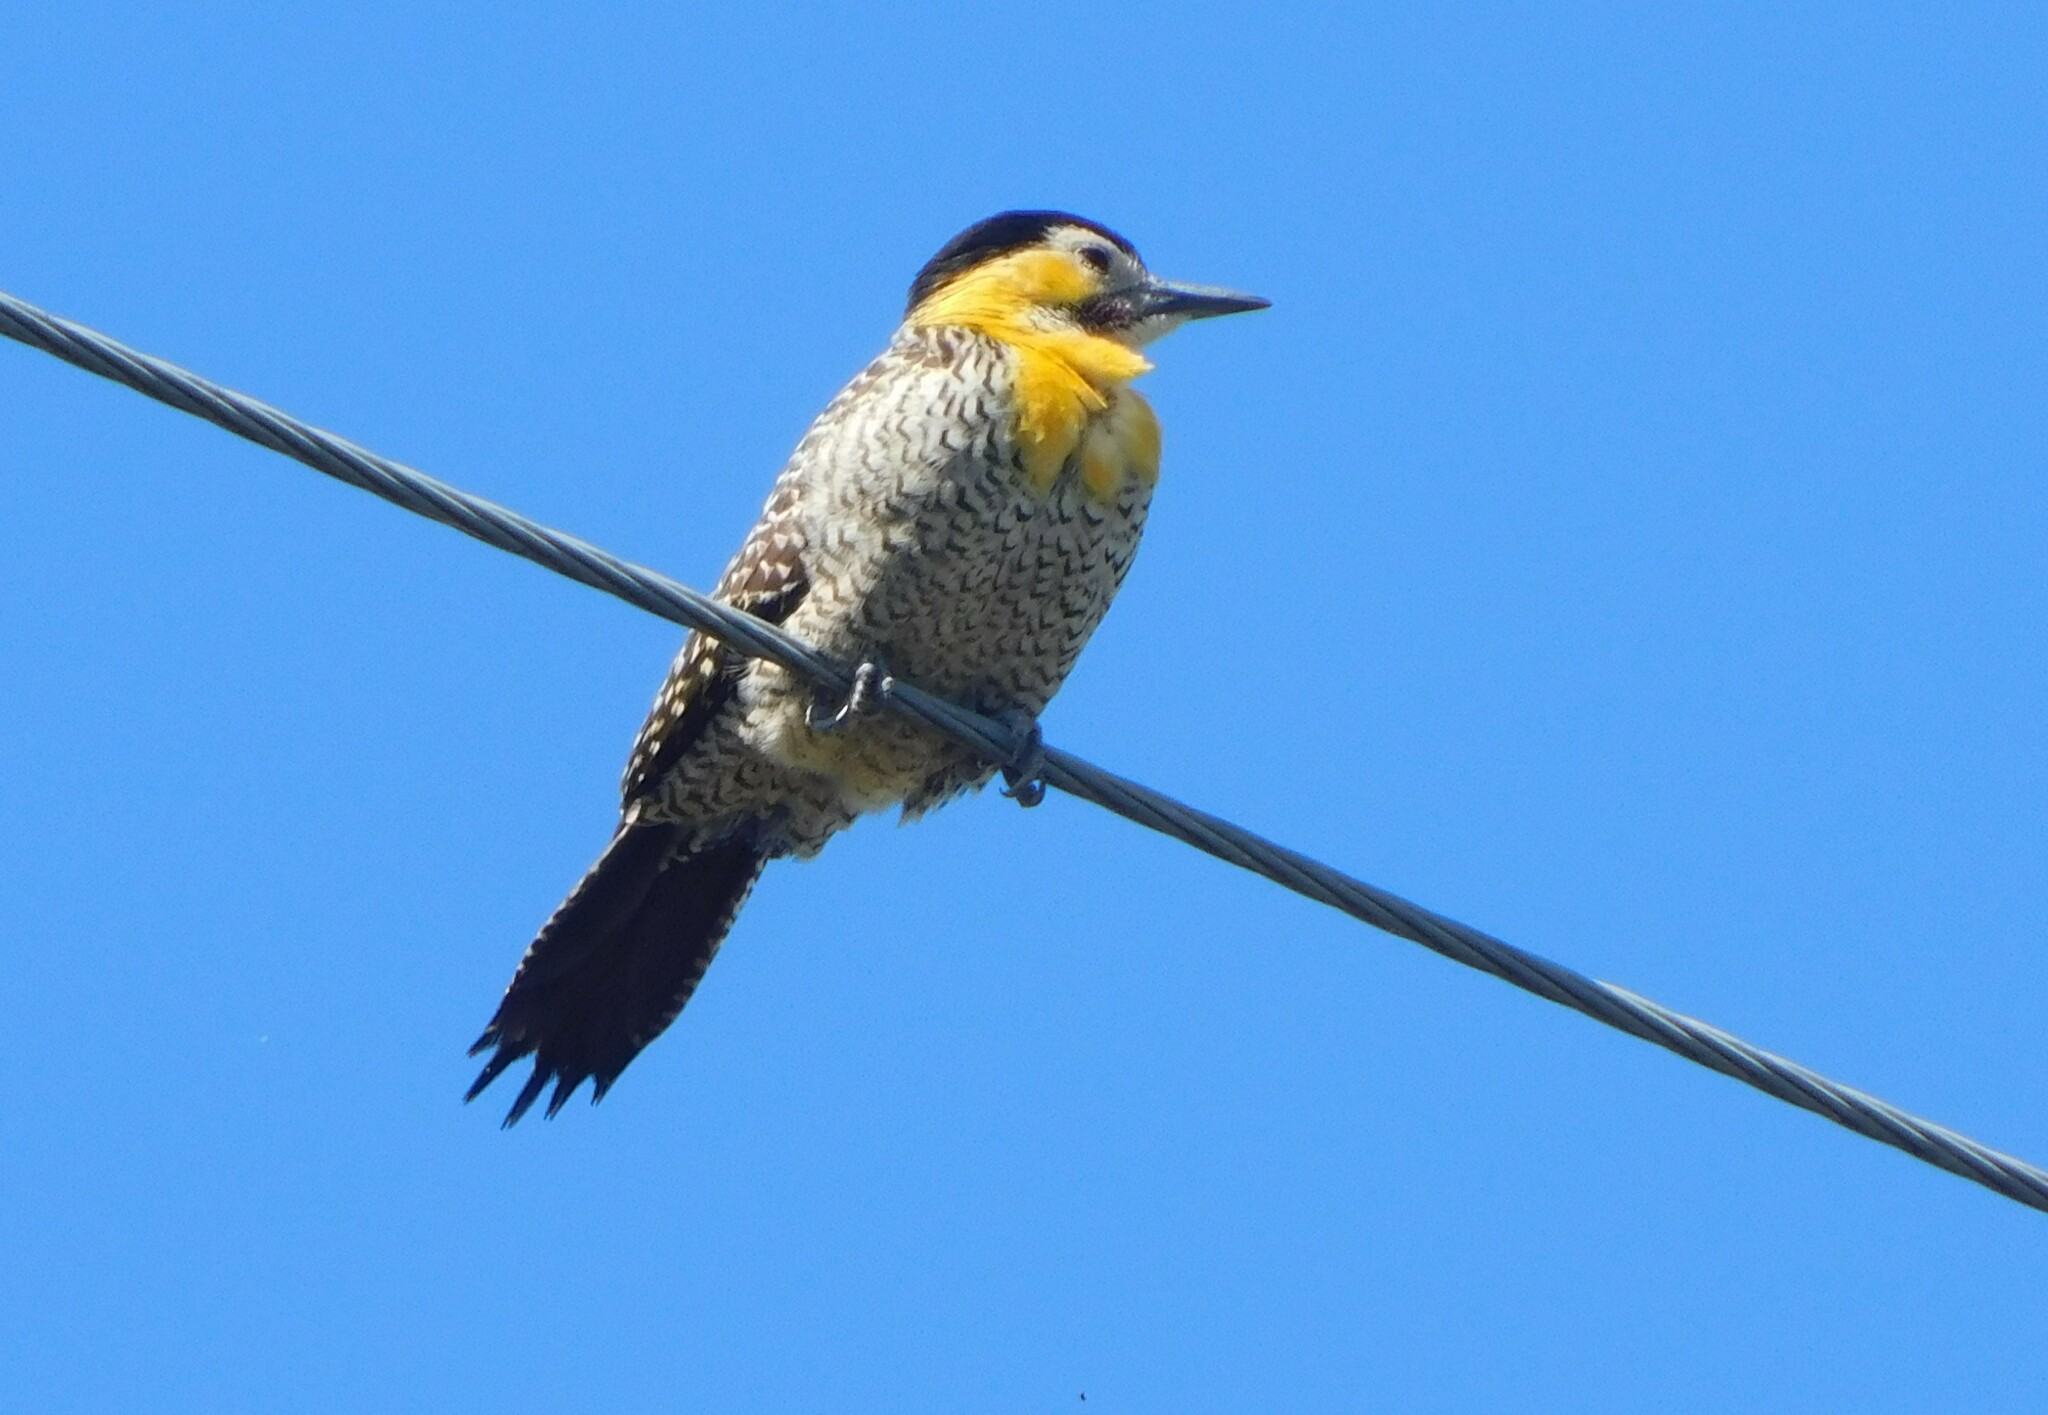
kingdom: Animalia
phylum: Chordata
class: Aves
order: Piciformes
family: Picidae
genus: Colaptes
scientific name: Colaptes campestris
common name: Campo flicker
